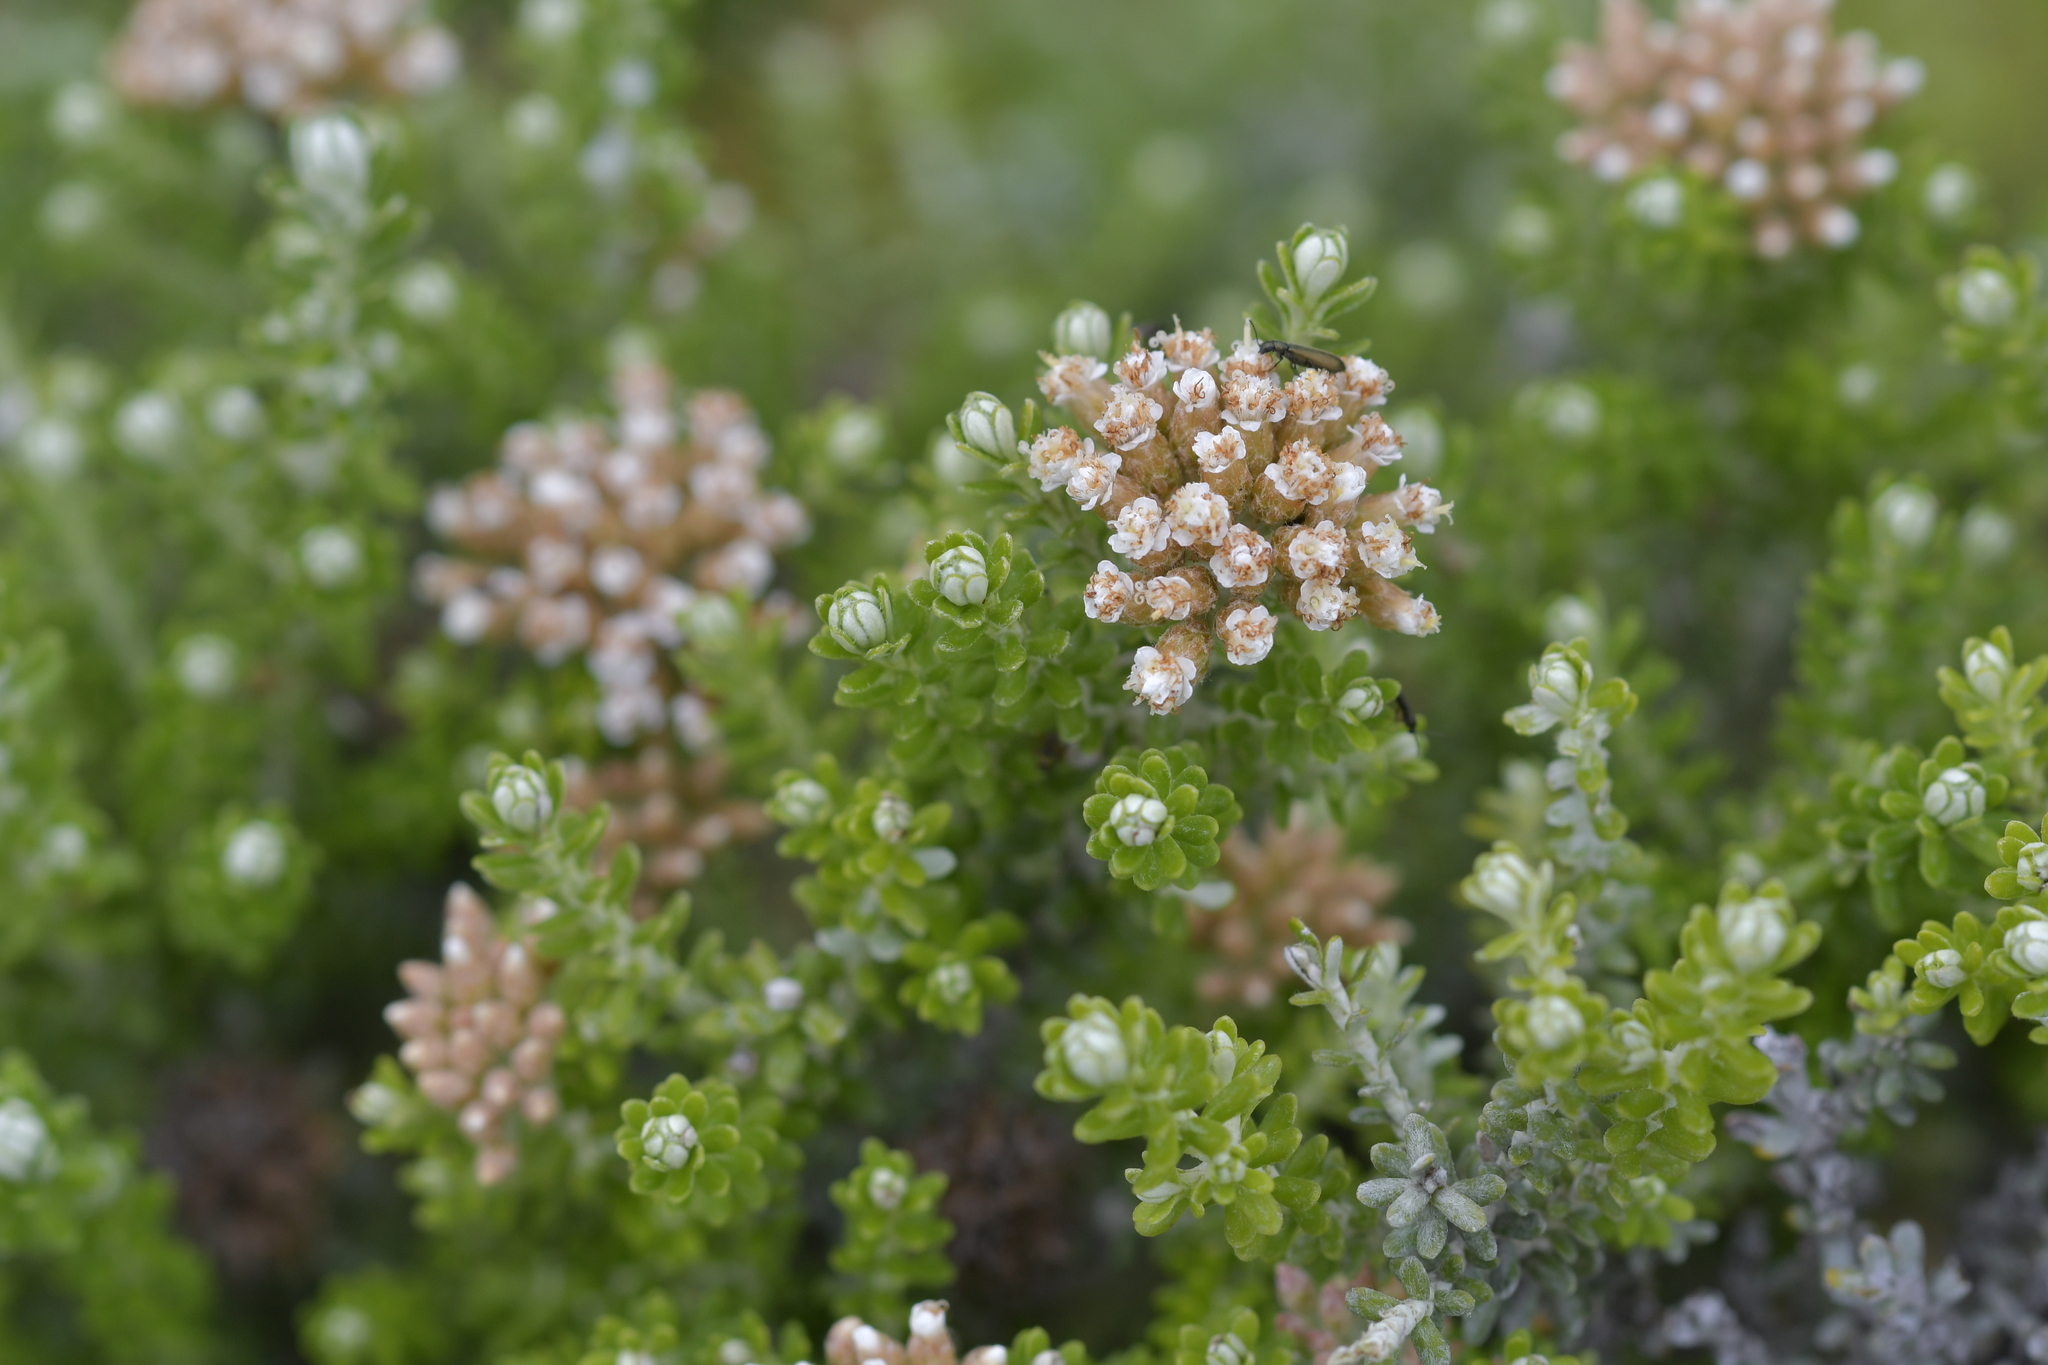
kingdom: Plantae
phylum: Tracheophyta
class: Magnoliopsida
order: Asterales
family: Asteraceae
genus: Ozothamnus
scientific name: Ozothamnus leptophyllus
